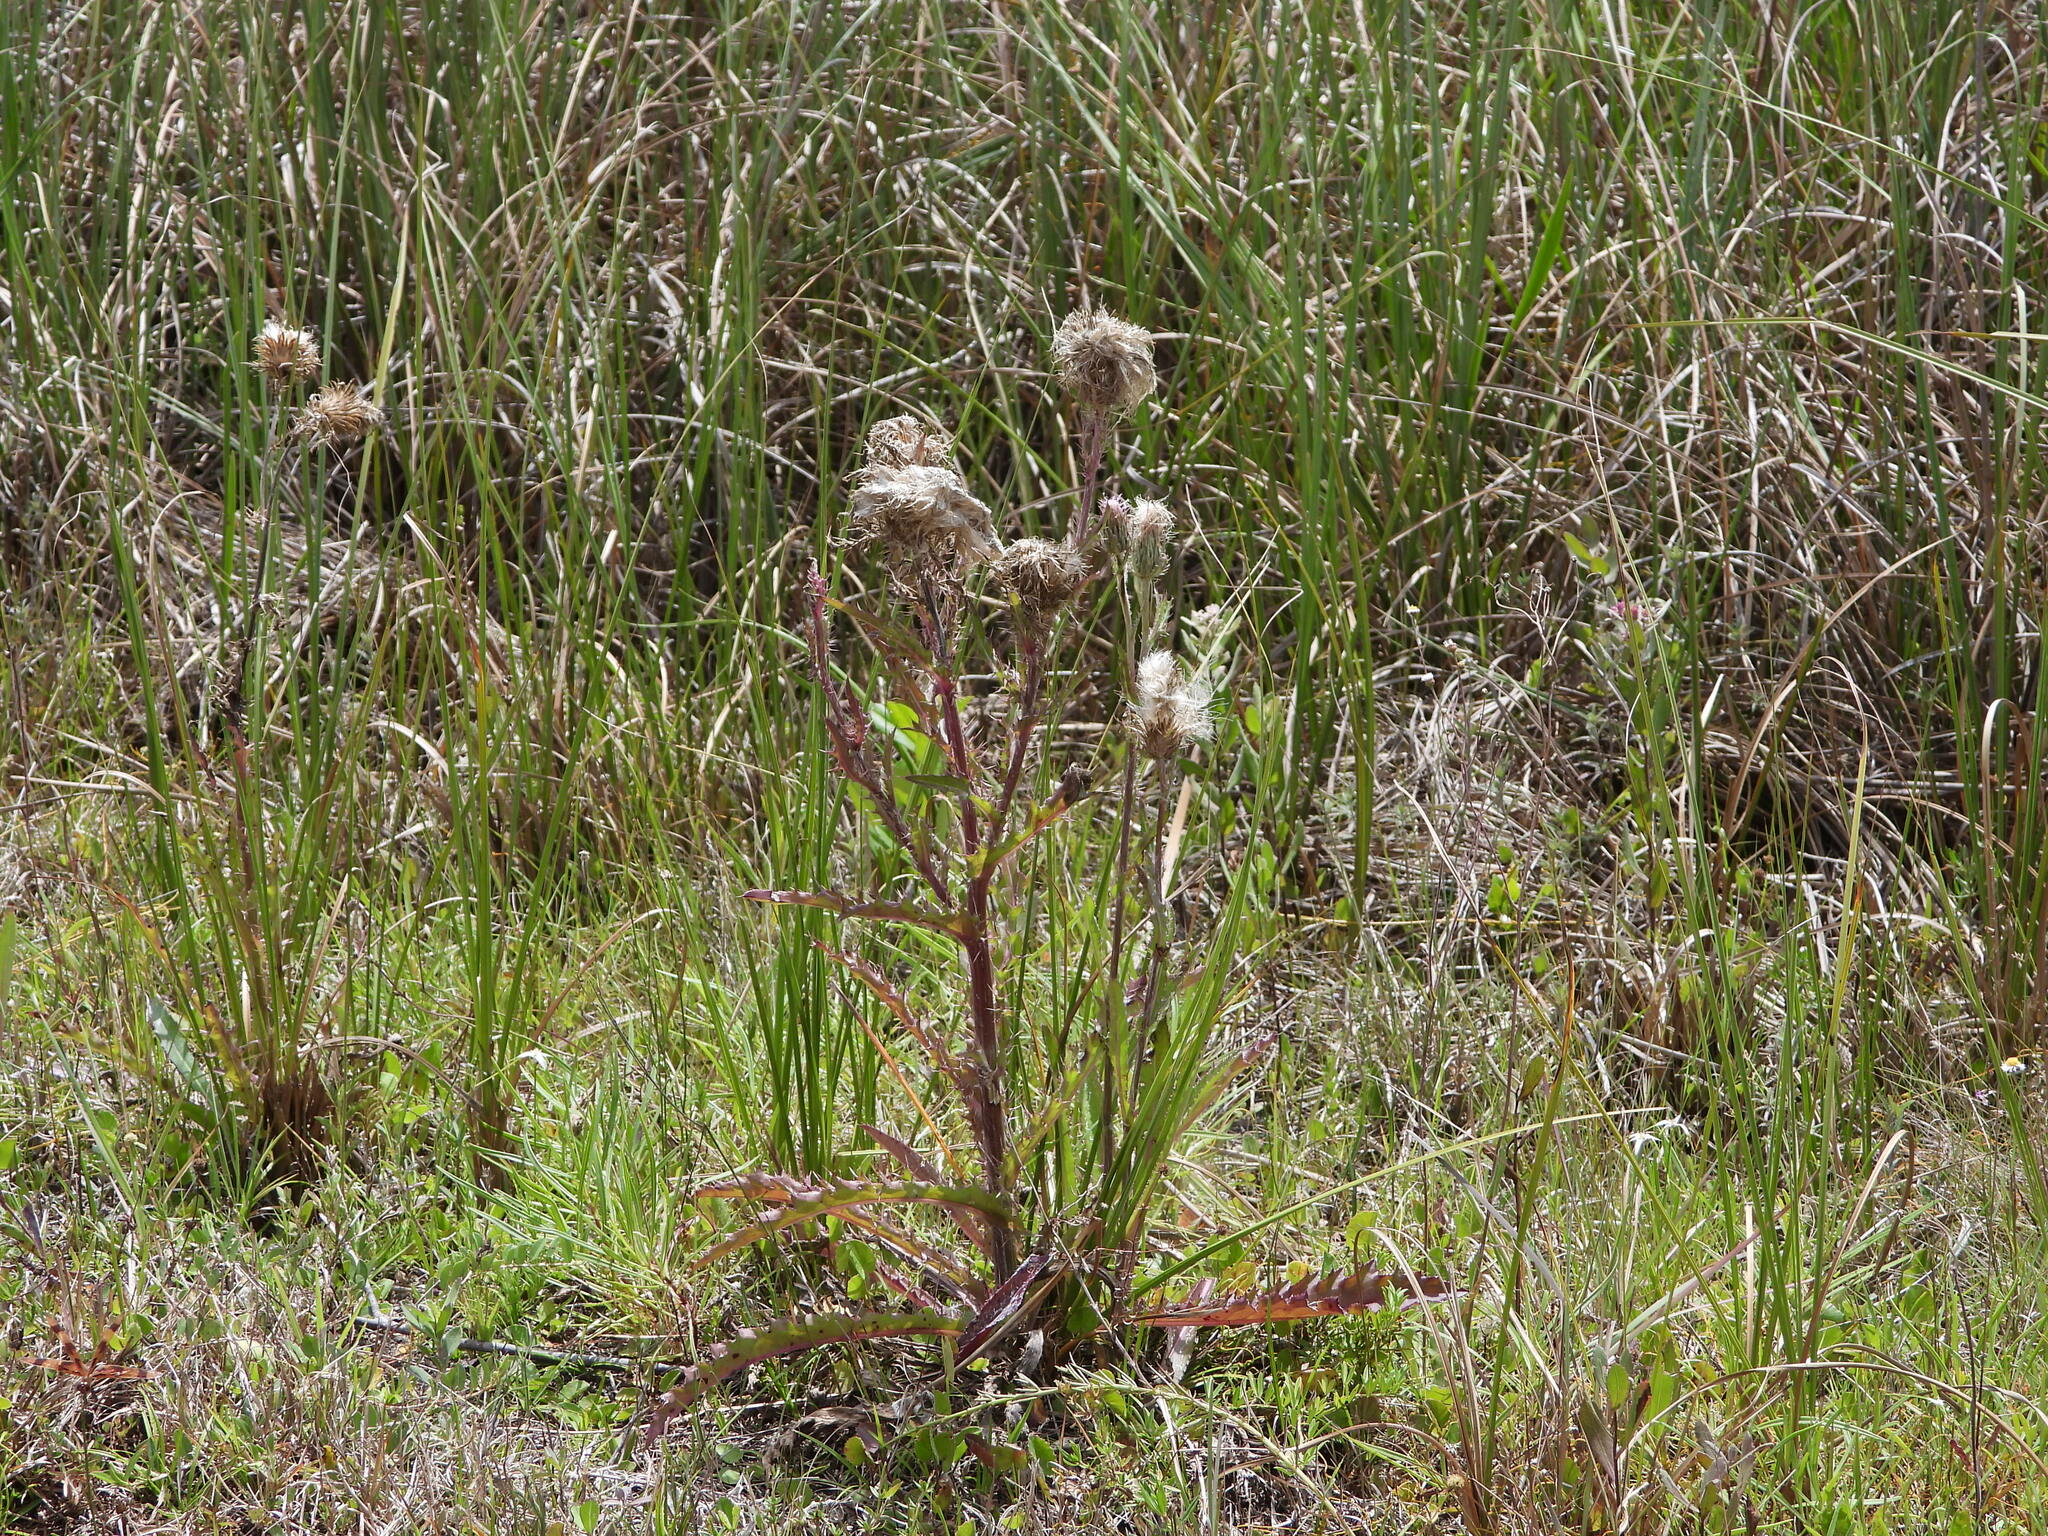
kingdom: Plantae
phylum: Tracheophyta
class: Magnoliopsida
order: Asterales
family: Asteraceae
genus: Cirsium
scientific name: Cirsium horridulum
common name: Bristly thistle
